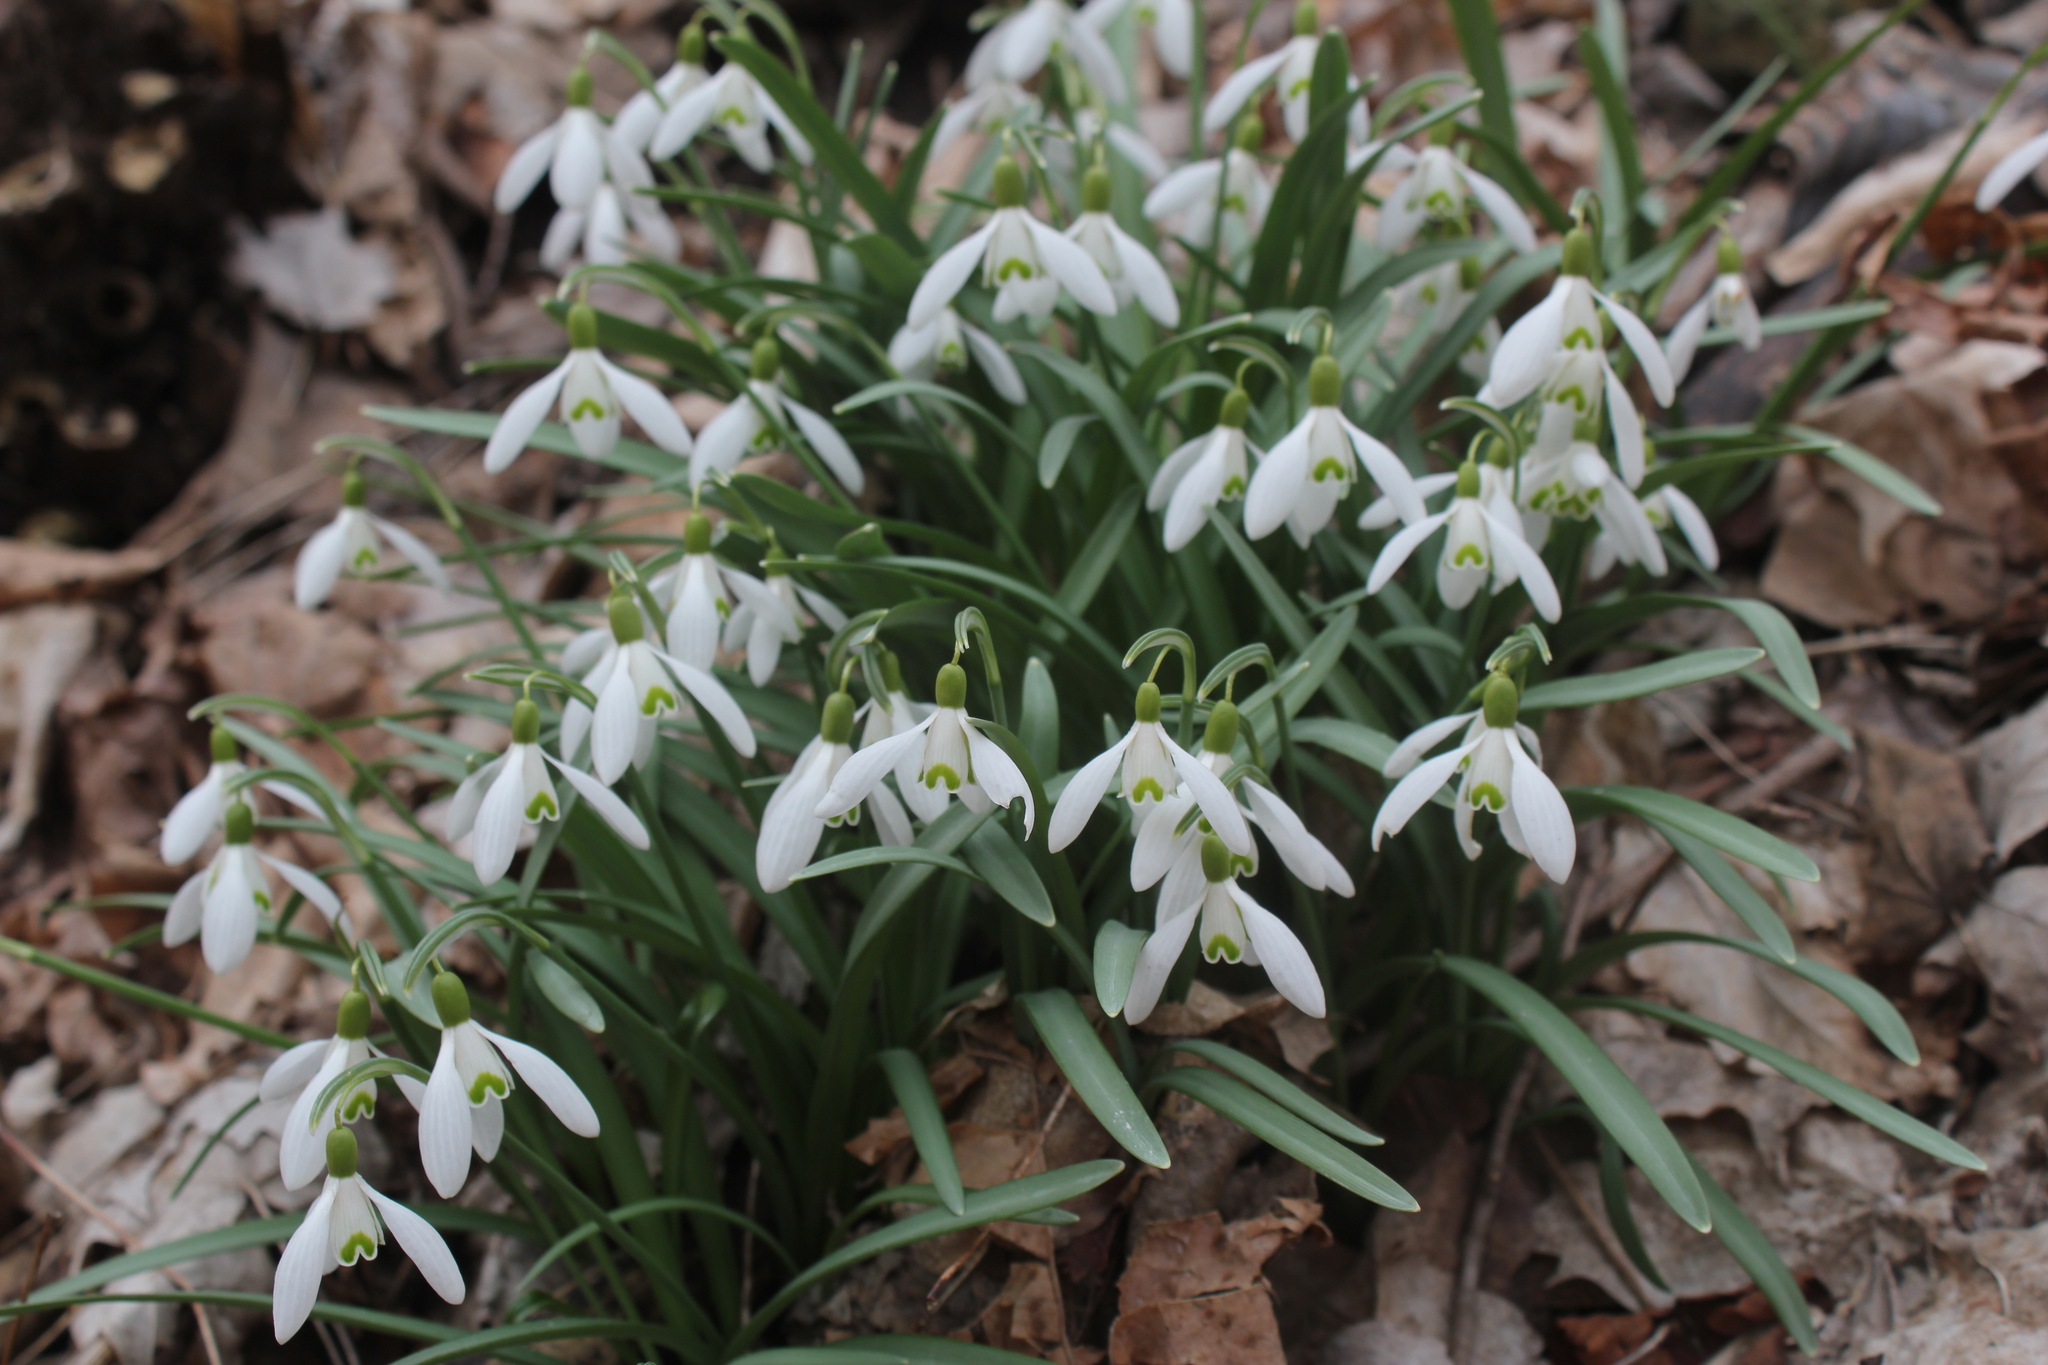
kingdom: Plantae
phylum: Tracheophyta
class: Liliopsida
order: Asparagales
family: Amaryllidaceae
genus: Galanthus
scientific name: Galanthus nivalis
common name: Snowdrop
